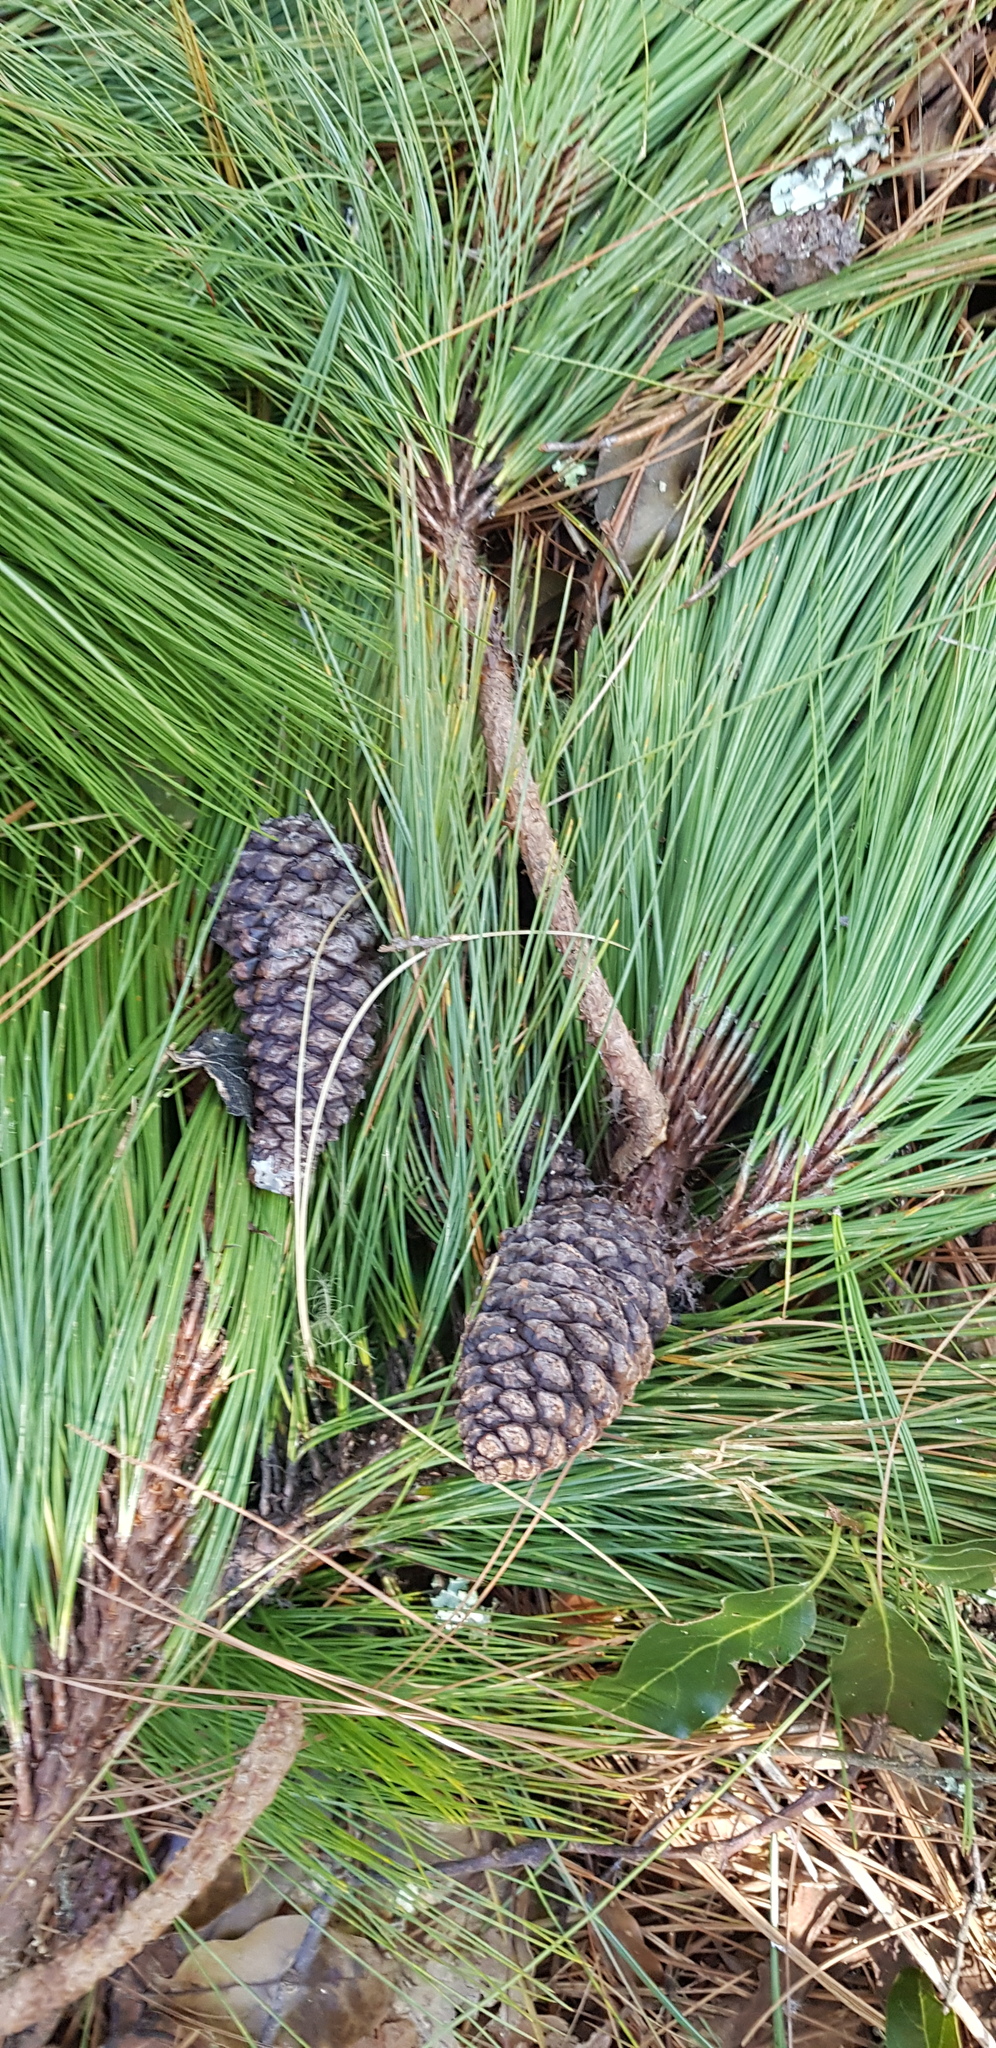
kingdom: Plantae
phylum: Tracheophyta
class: Pinopsida
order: Pinales
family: Pinaceae
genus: Pinus
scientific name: Pinus patula
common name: Mexican weeping pine
